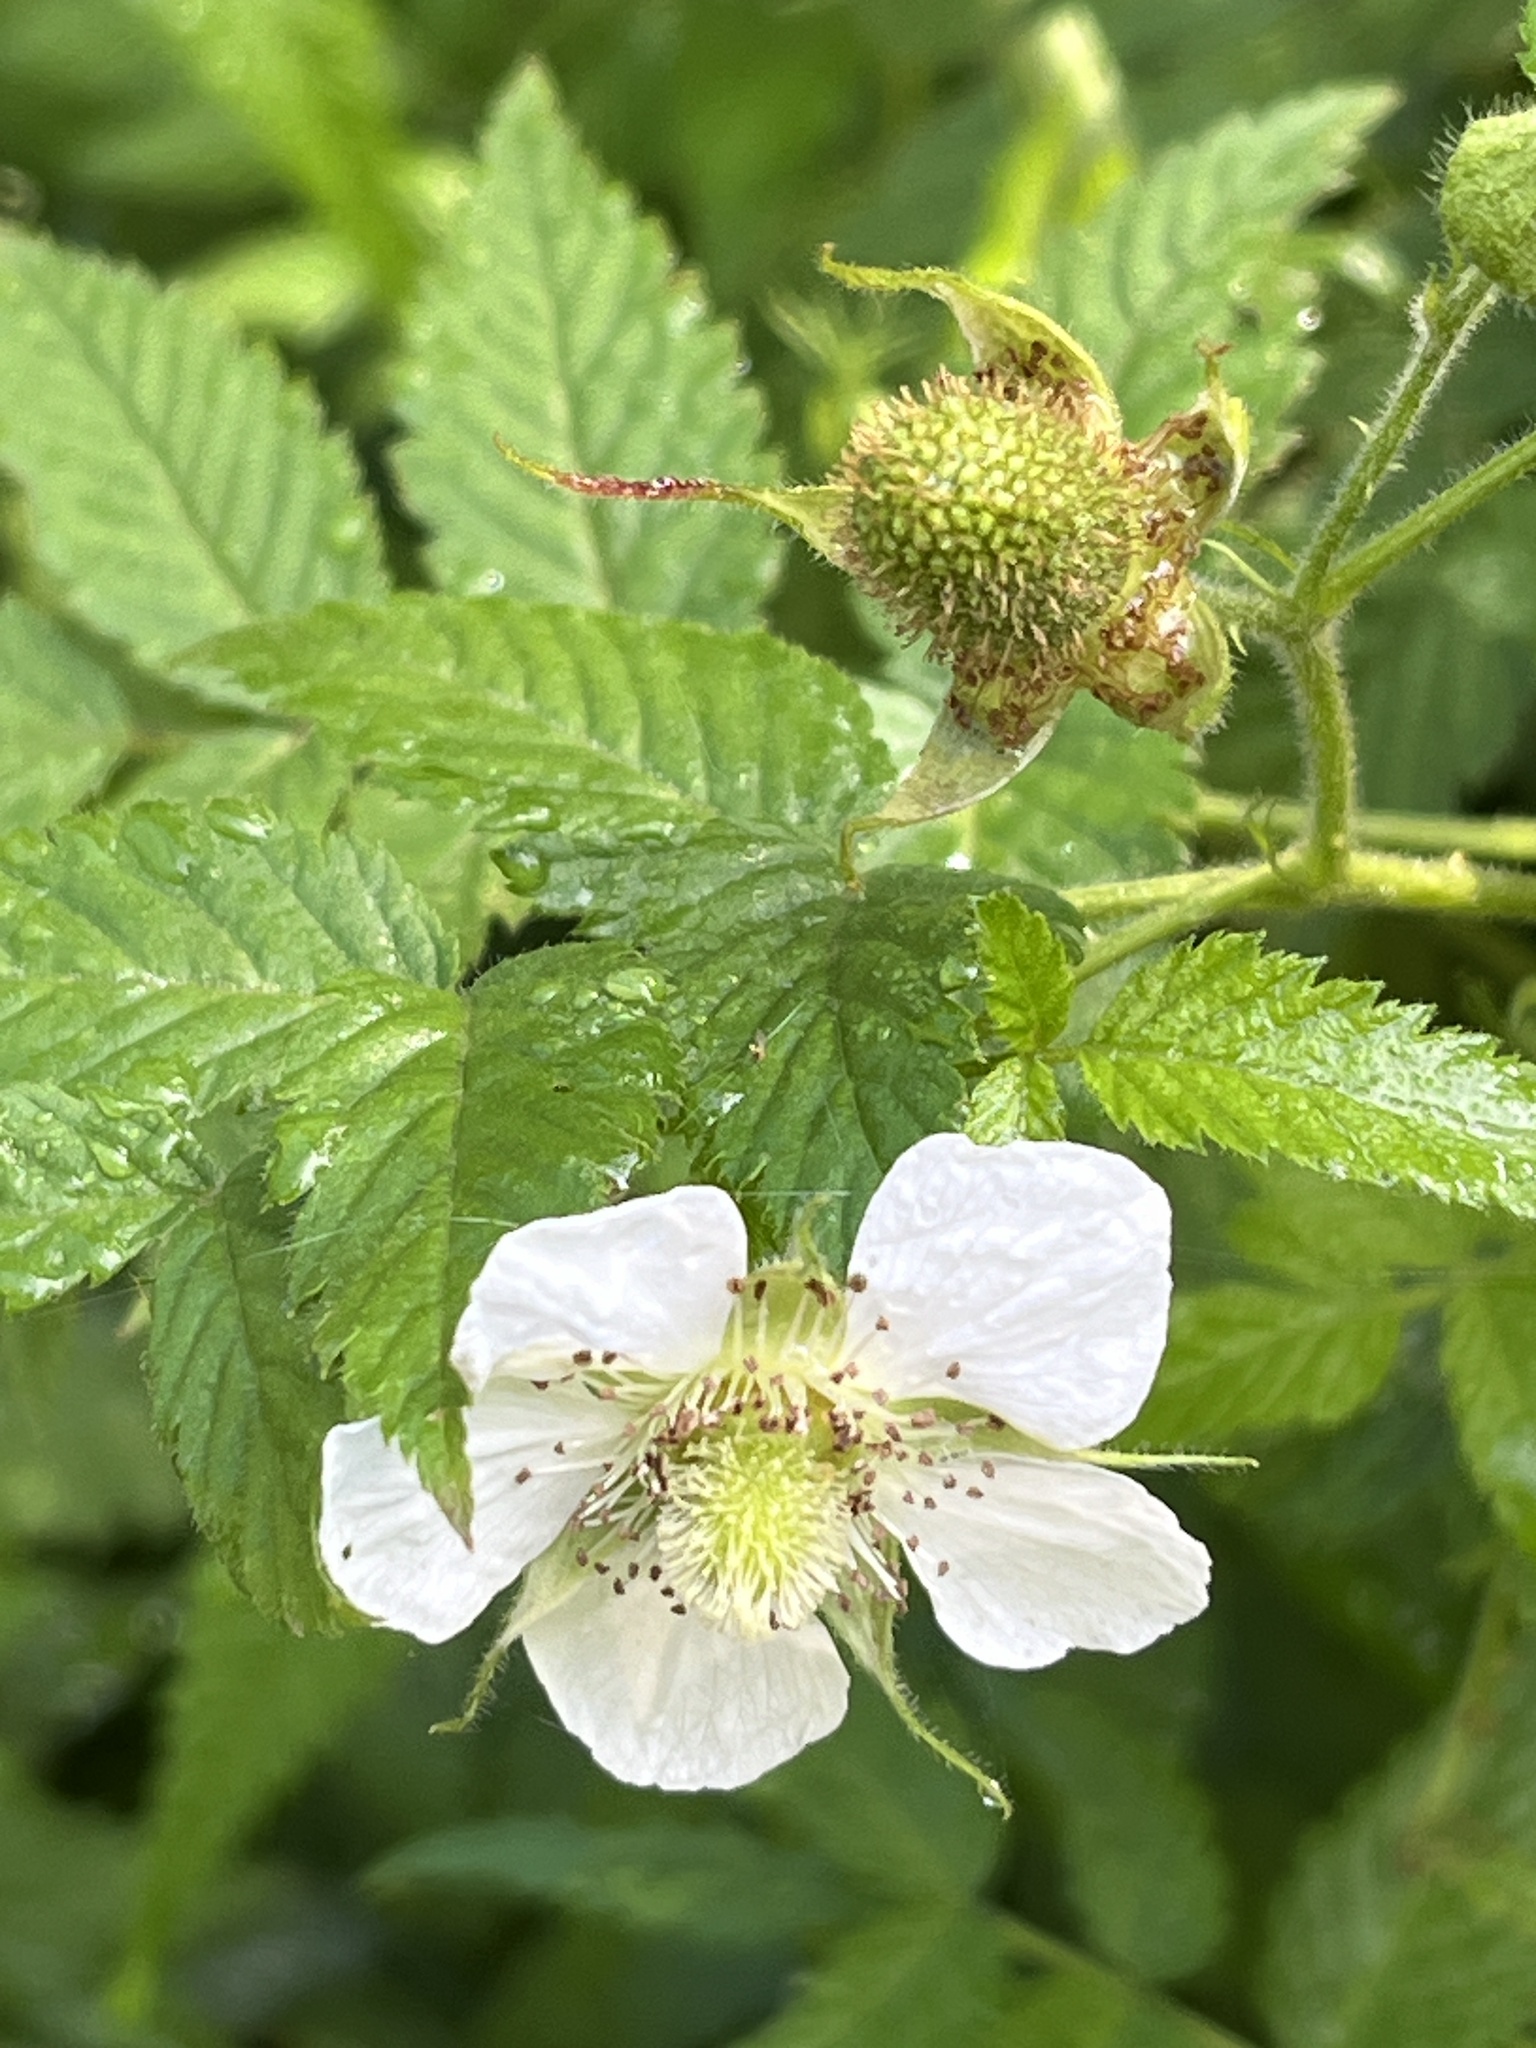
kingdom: Plantae
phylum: Tracheophyta
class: Magnoliopsida
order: Rosales
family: Rosaceae
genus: Rubus
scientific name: Rubus rosifolius
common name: Roseleaf raspberry
